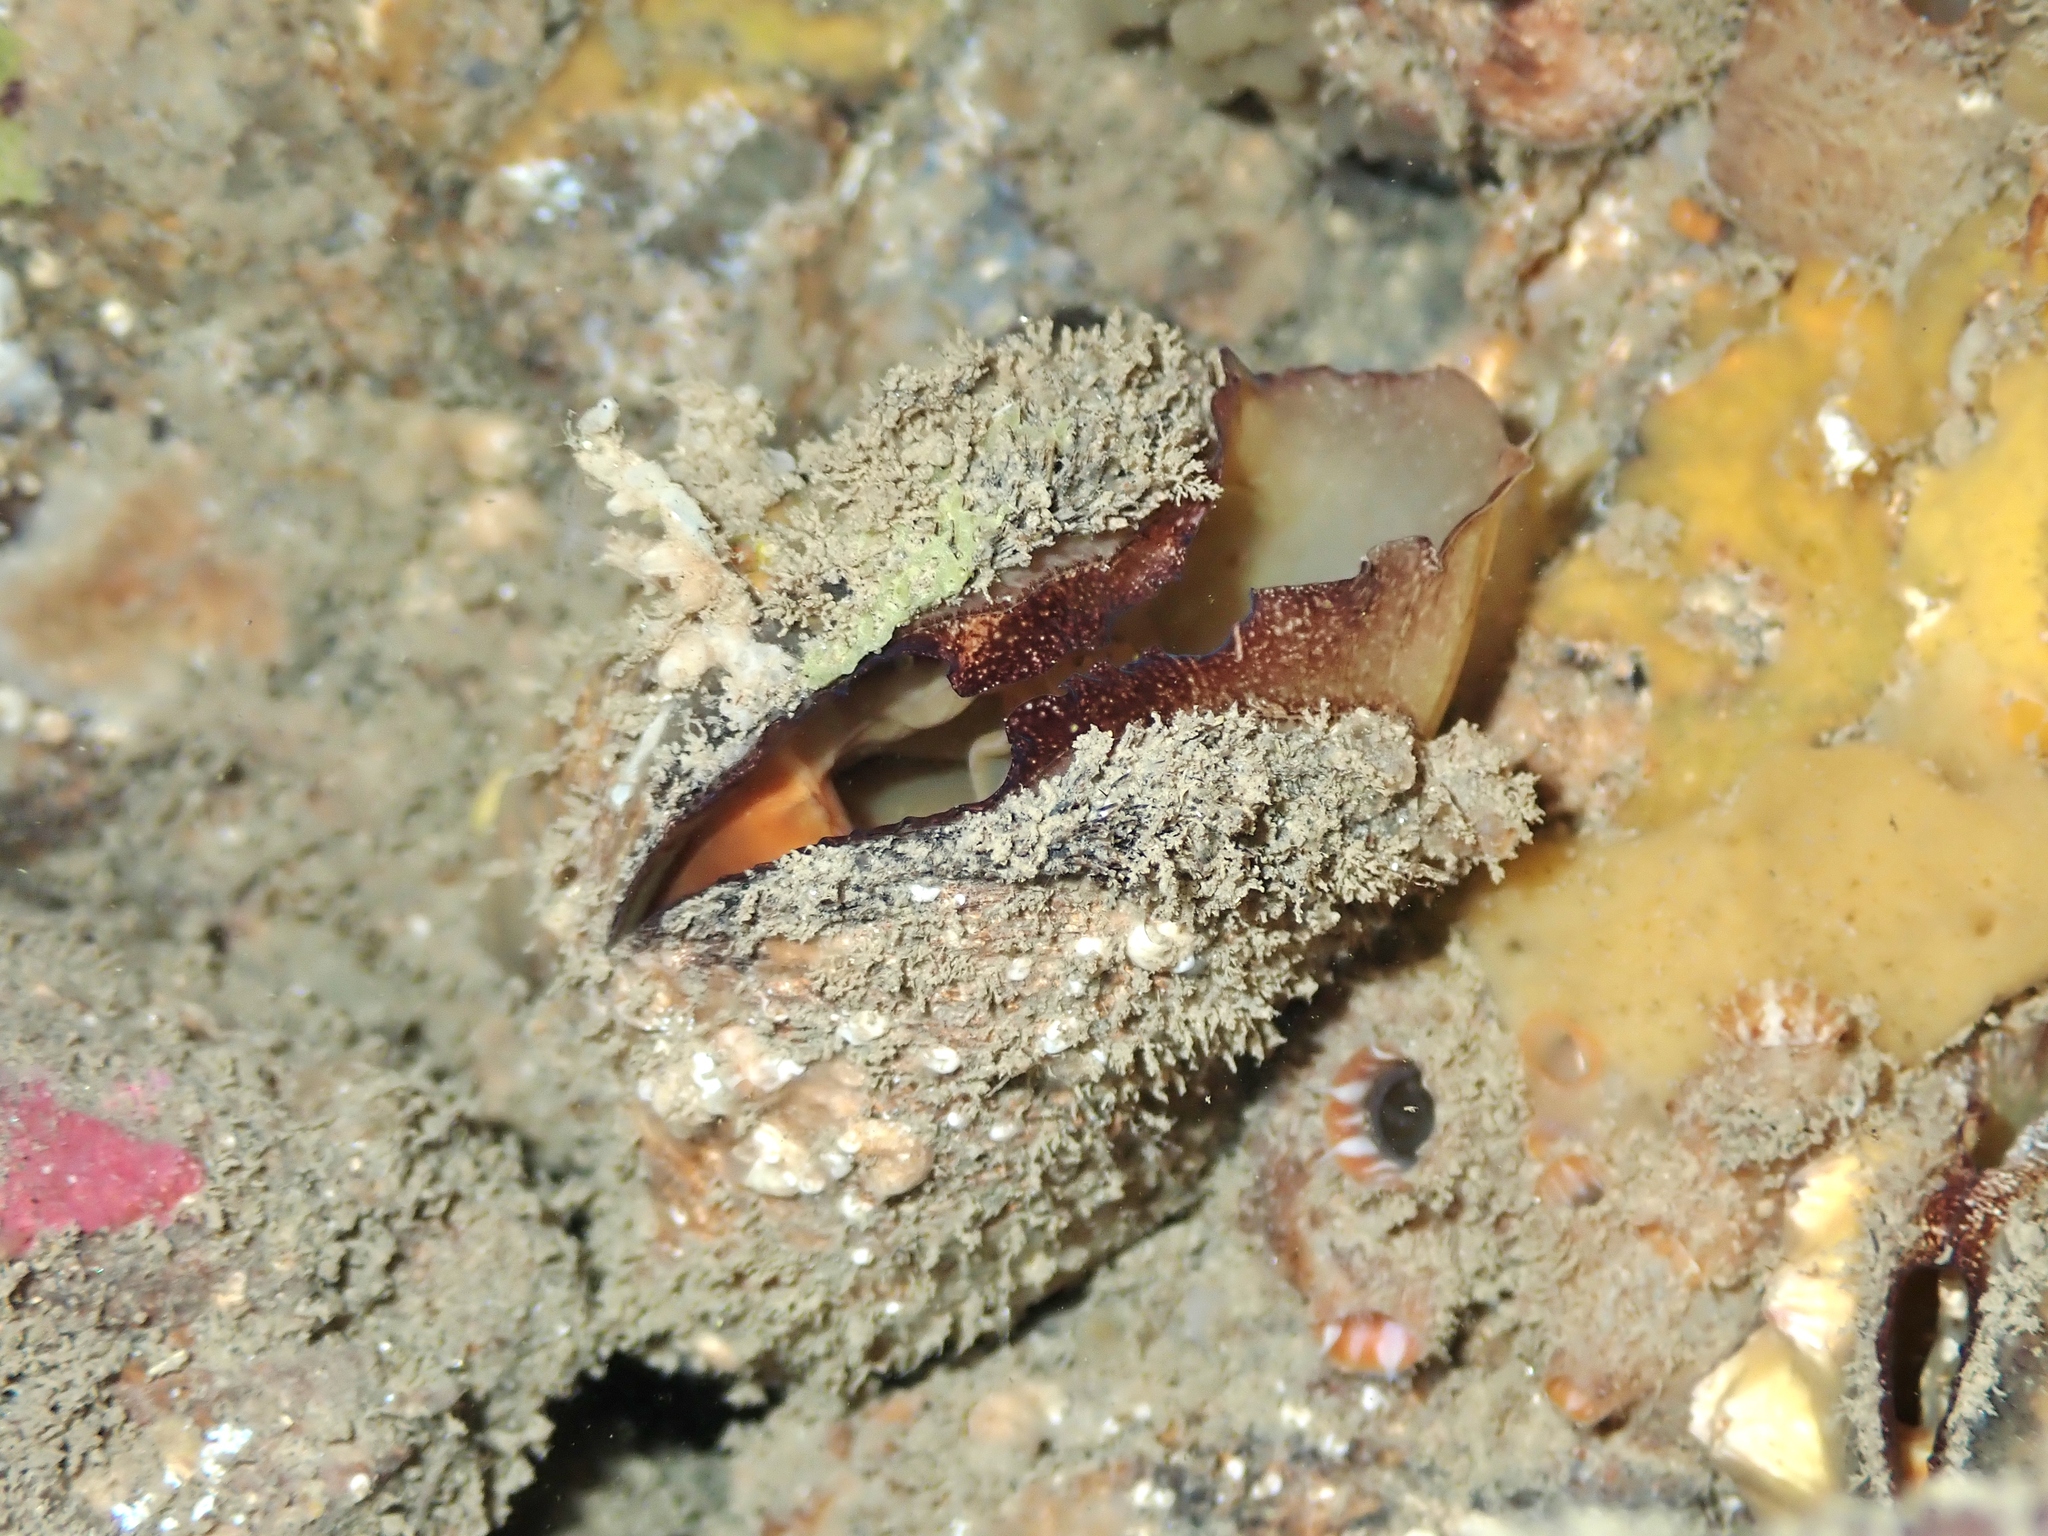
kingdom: Animalia
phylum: Mollusca
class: Bivalvia
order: Mytilida
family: Mytilidae
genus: Modiolus
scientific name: Modiolus areolatus
